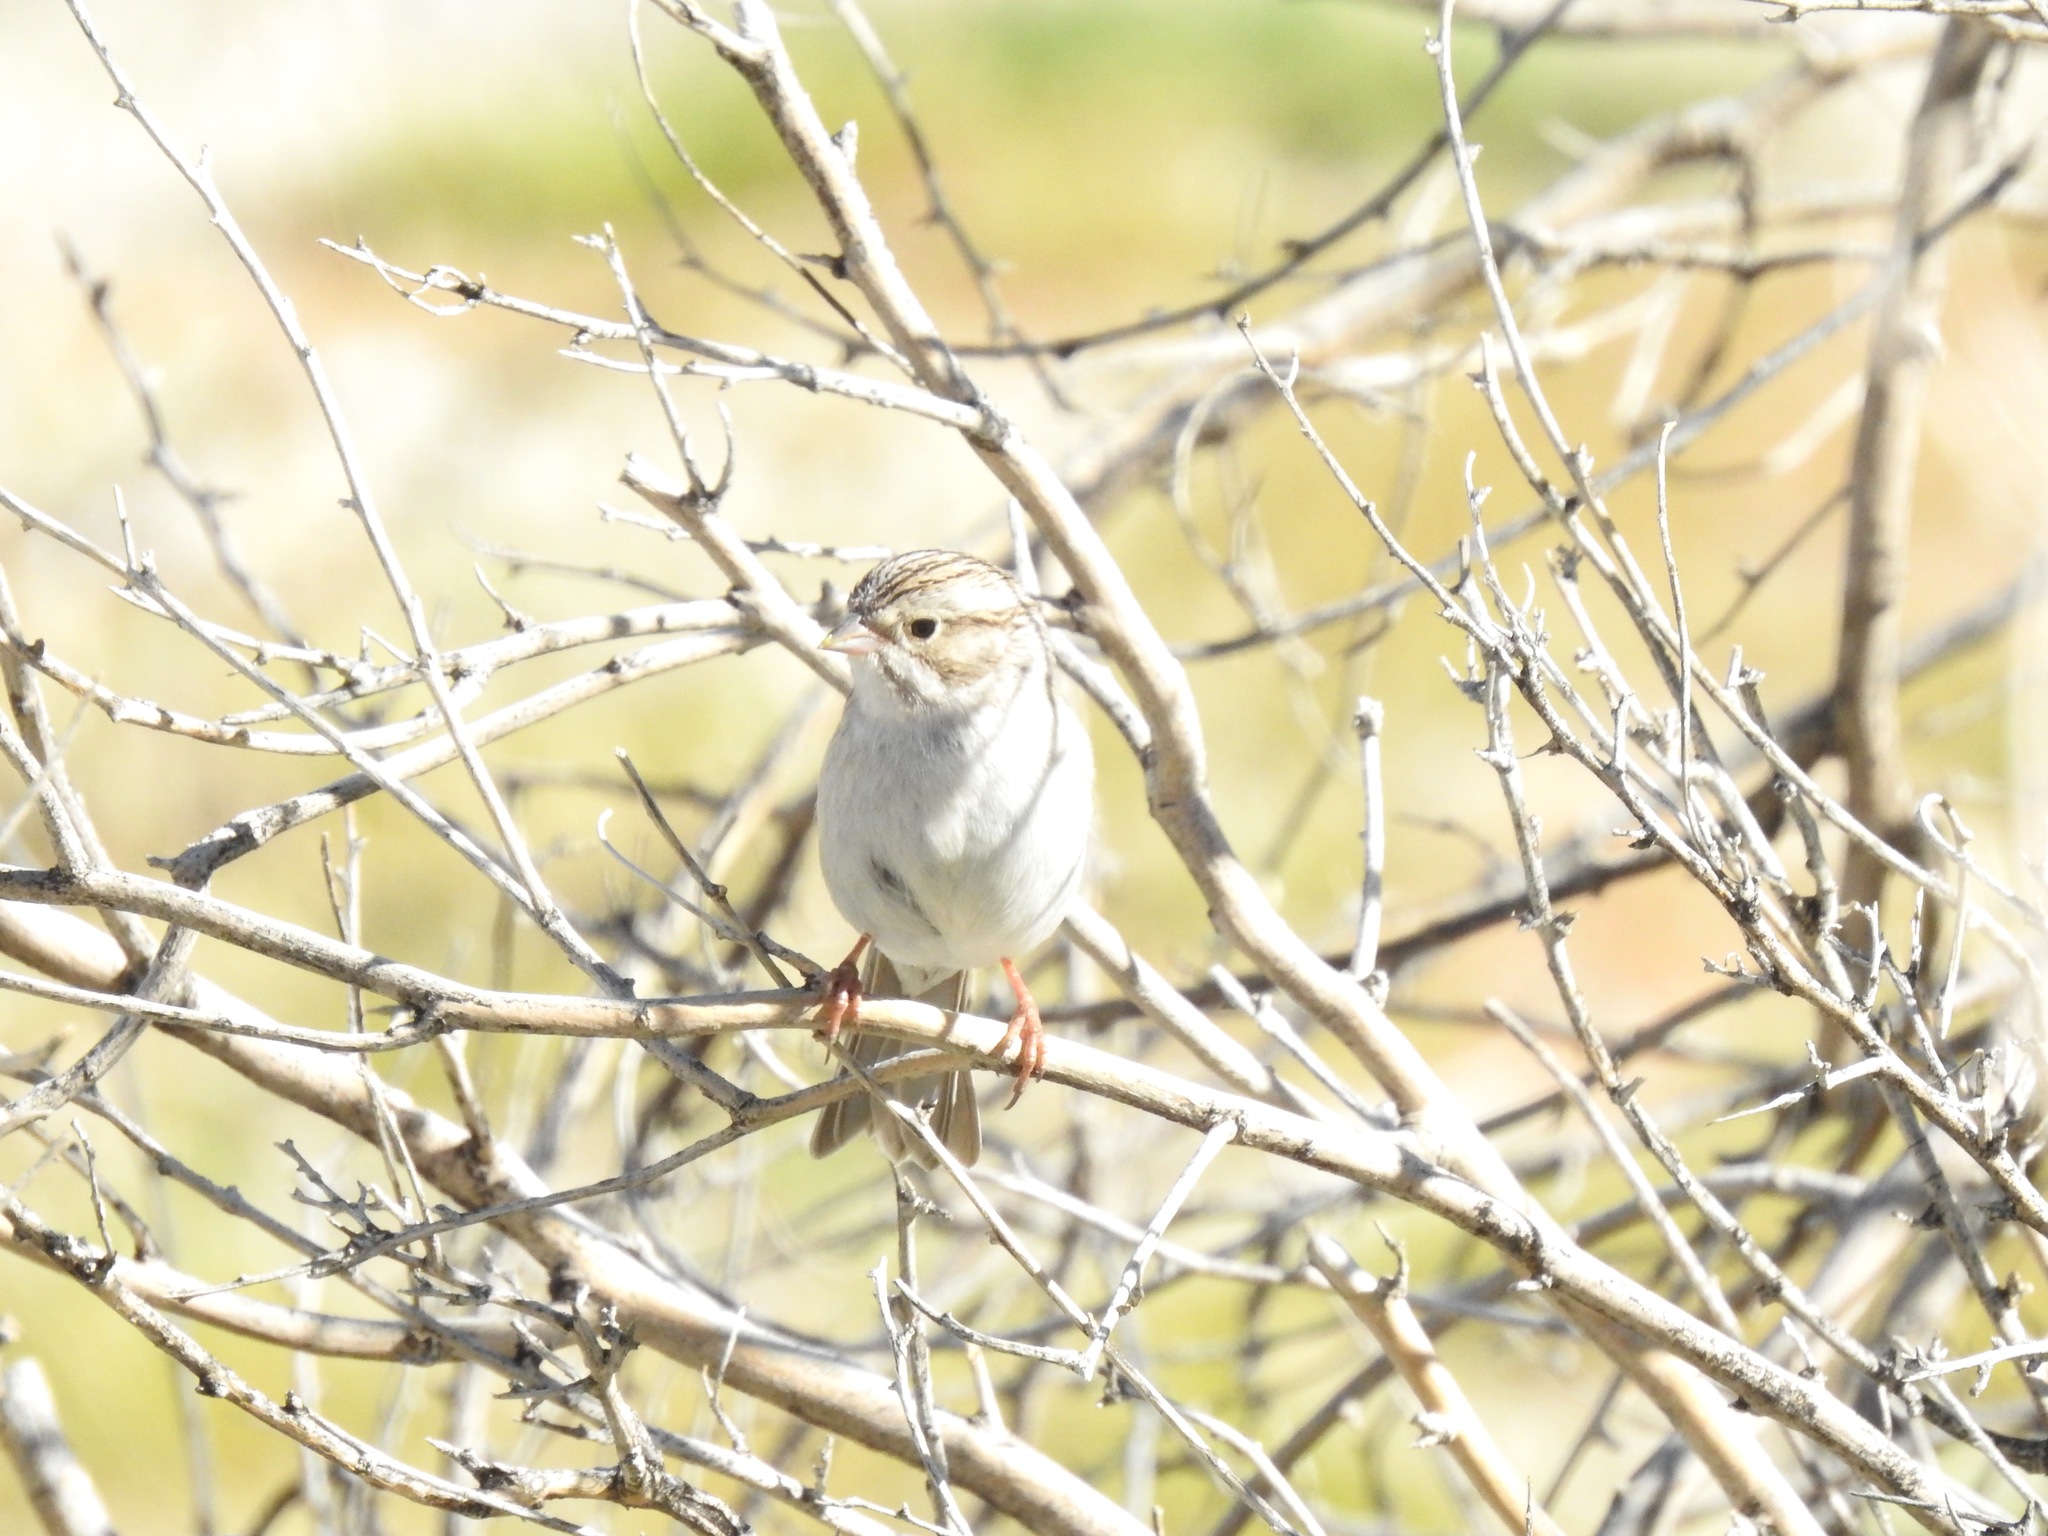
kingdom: Animalia
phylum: Chordata
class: Aves
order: Passeriformes
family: Passerellidae
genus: Spizella
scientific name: Spizella breweri
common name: Brewer's sparrow
